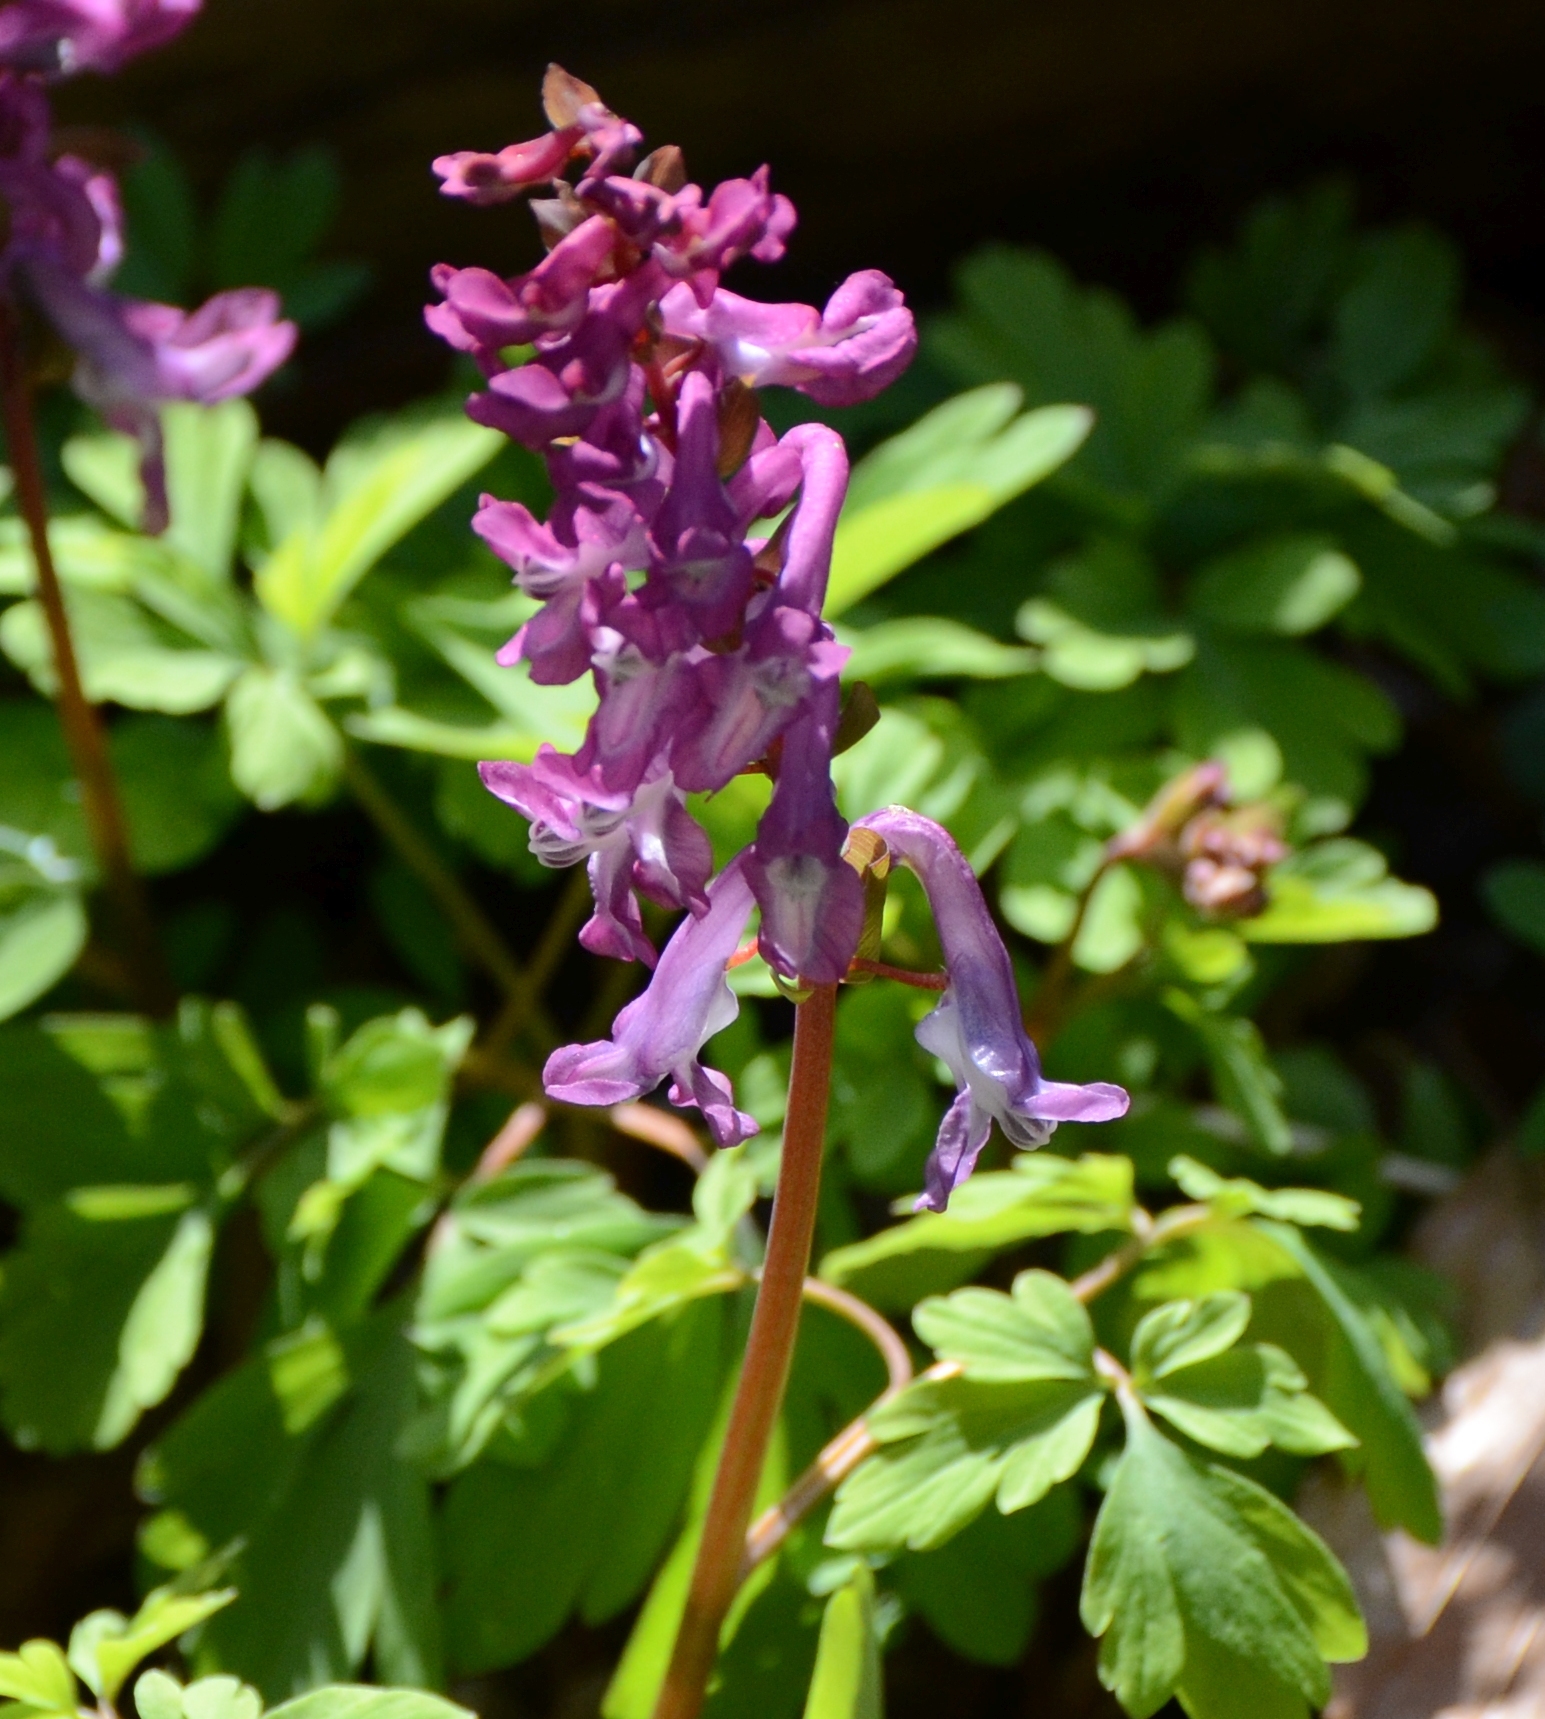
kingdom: Plantae
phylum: Tracheophyta
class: Magnoliopsida
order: Ranunculales
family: Papaveraceae
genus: Corydalis
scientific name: Corydalis cava
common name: Hollowroot
